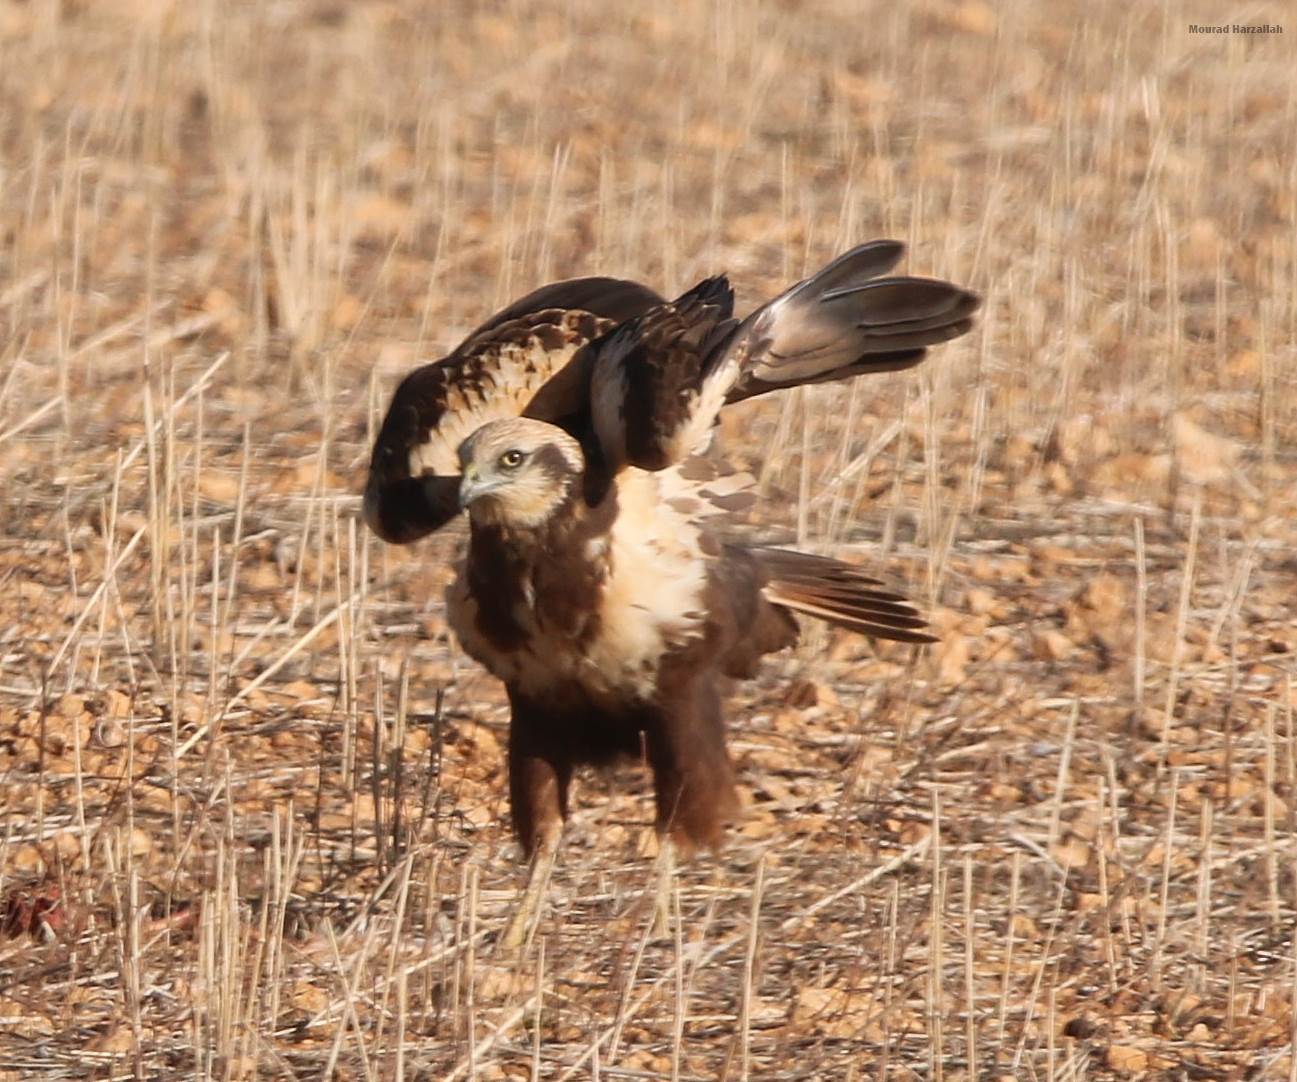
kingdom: Animalia
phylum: Chordata
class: Aves
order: Accipitriformes
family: Accipitridae
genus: Circus
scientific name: Circus aeruginosus
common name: Western marsh harrier
